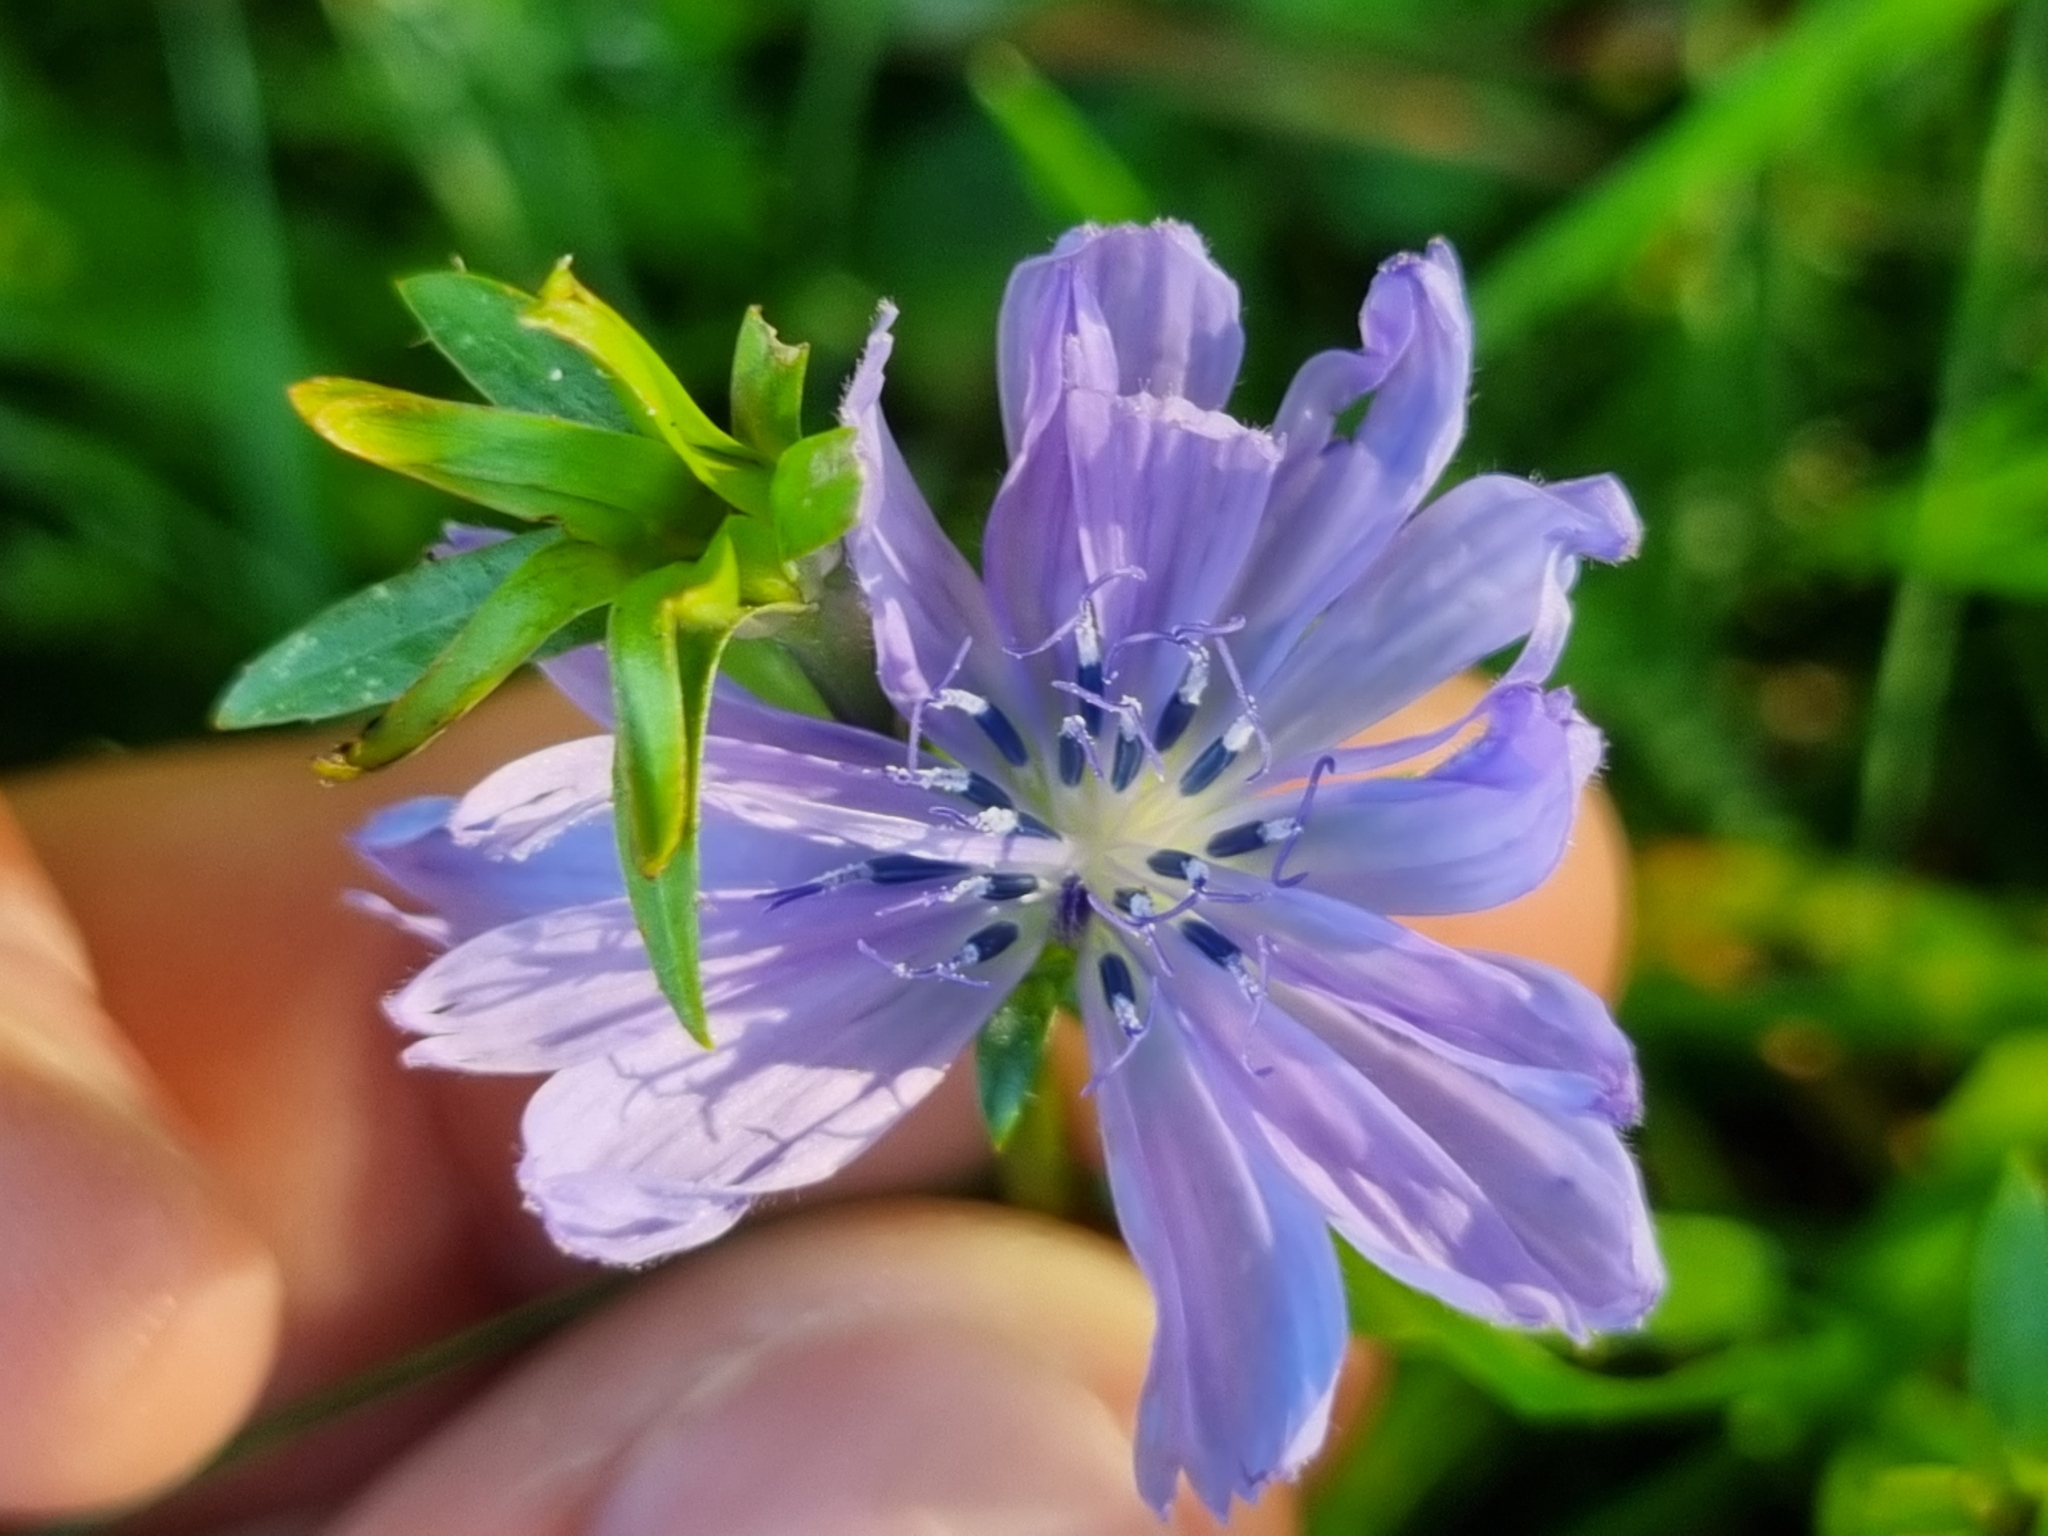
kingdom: Plantae
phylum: Tracheophyta
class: Magnoliopsida
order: Asterales
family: Asteraceae
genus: Cichorium
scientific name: Cichorium intybus
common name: Chicory
